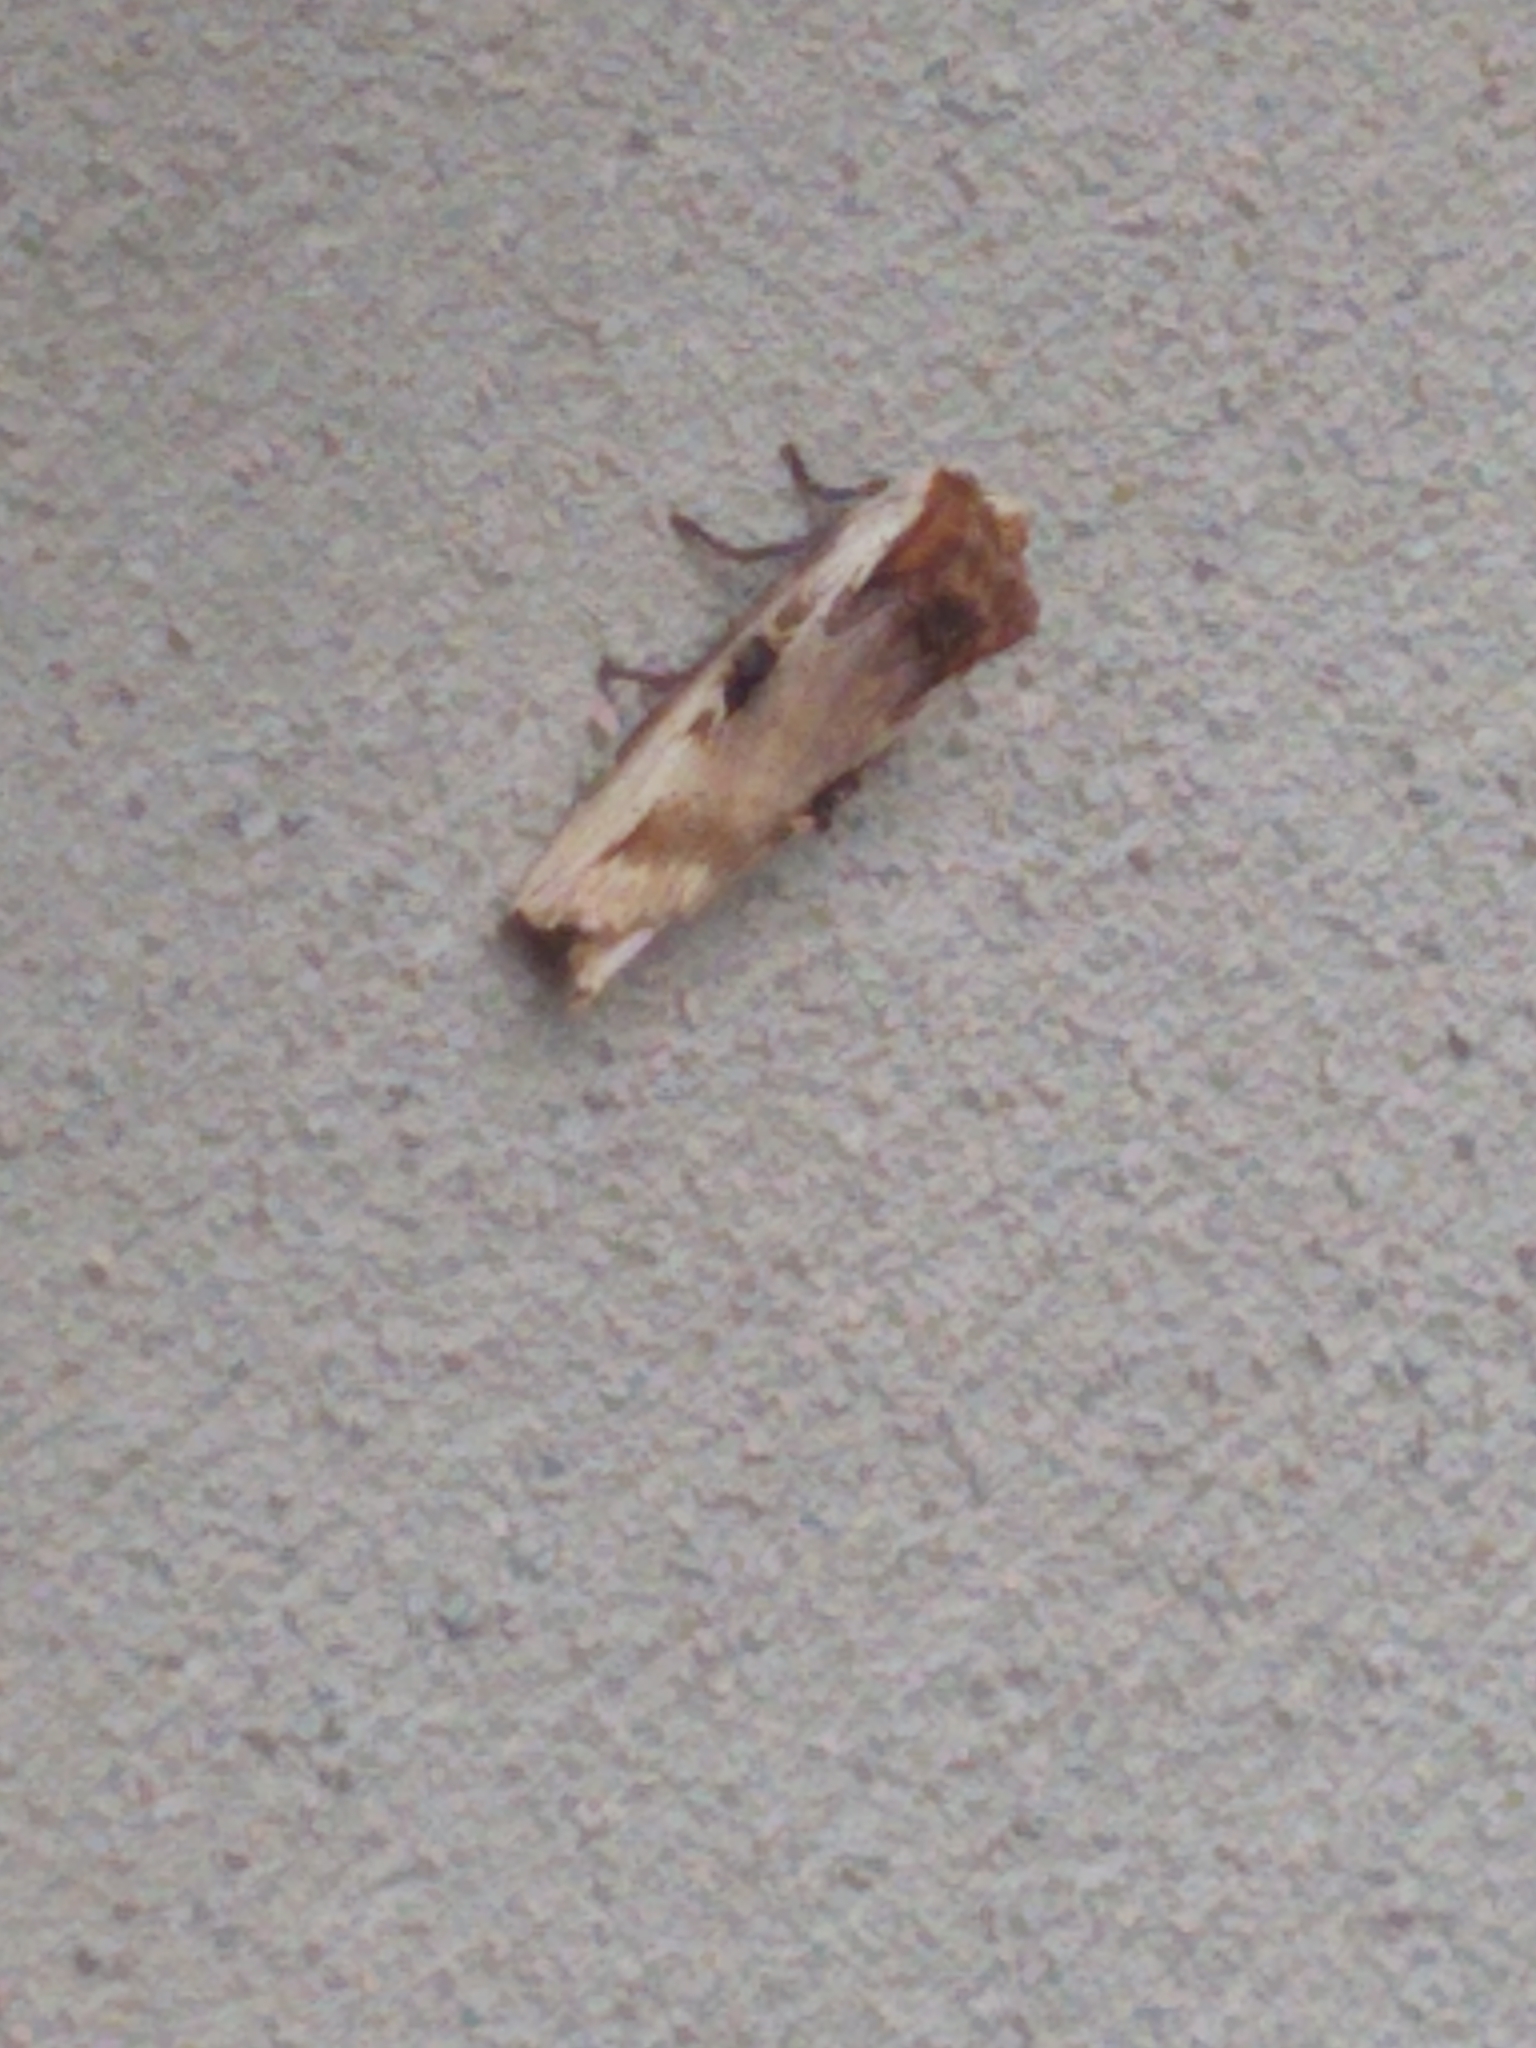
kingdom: Animalia
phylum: Arthropoda
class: Insecta
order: Lepidoptera
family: Noctuidae
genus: Xylena
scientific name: Xylena curvimacula
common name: Dot-and-dash swordgrass moth
